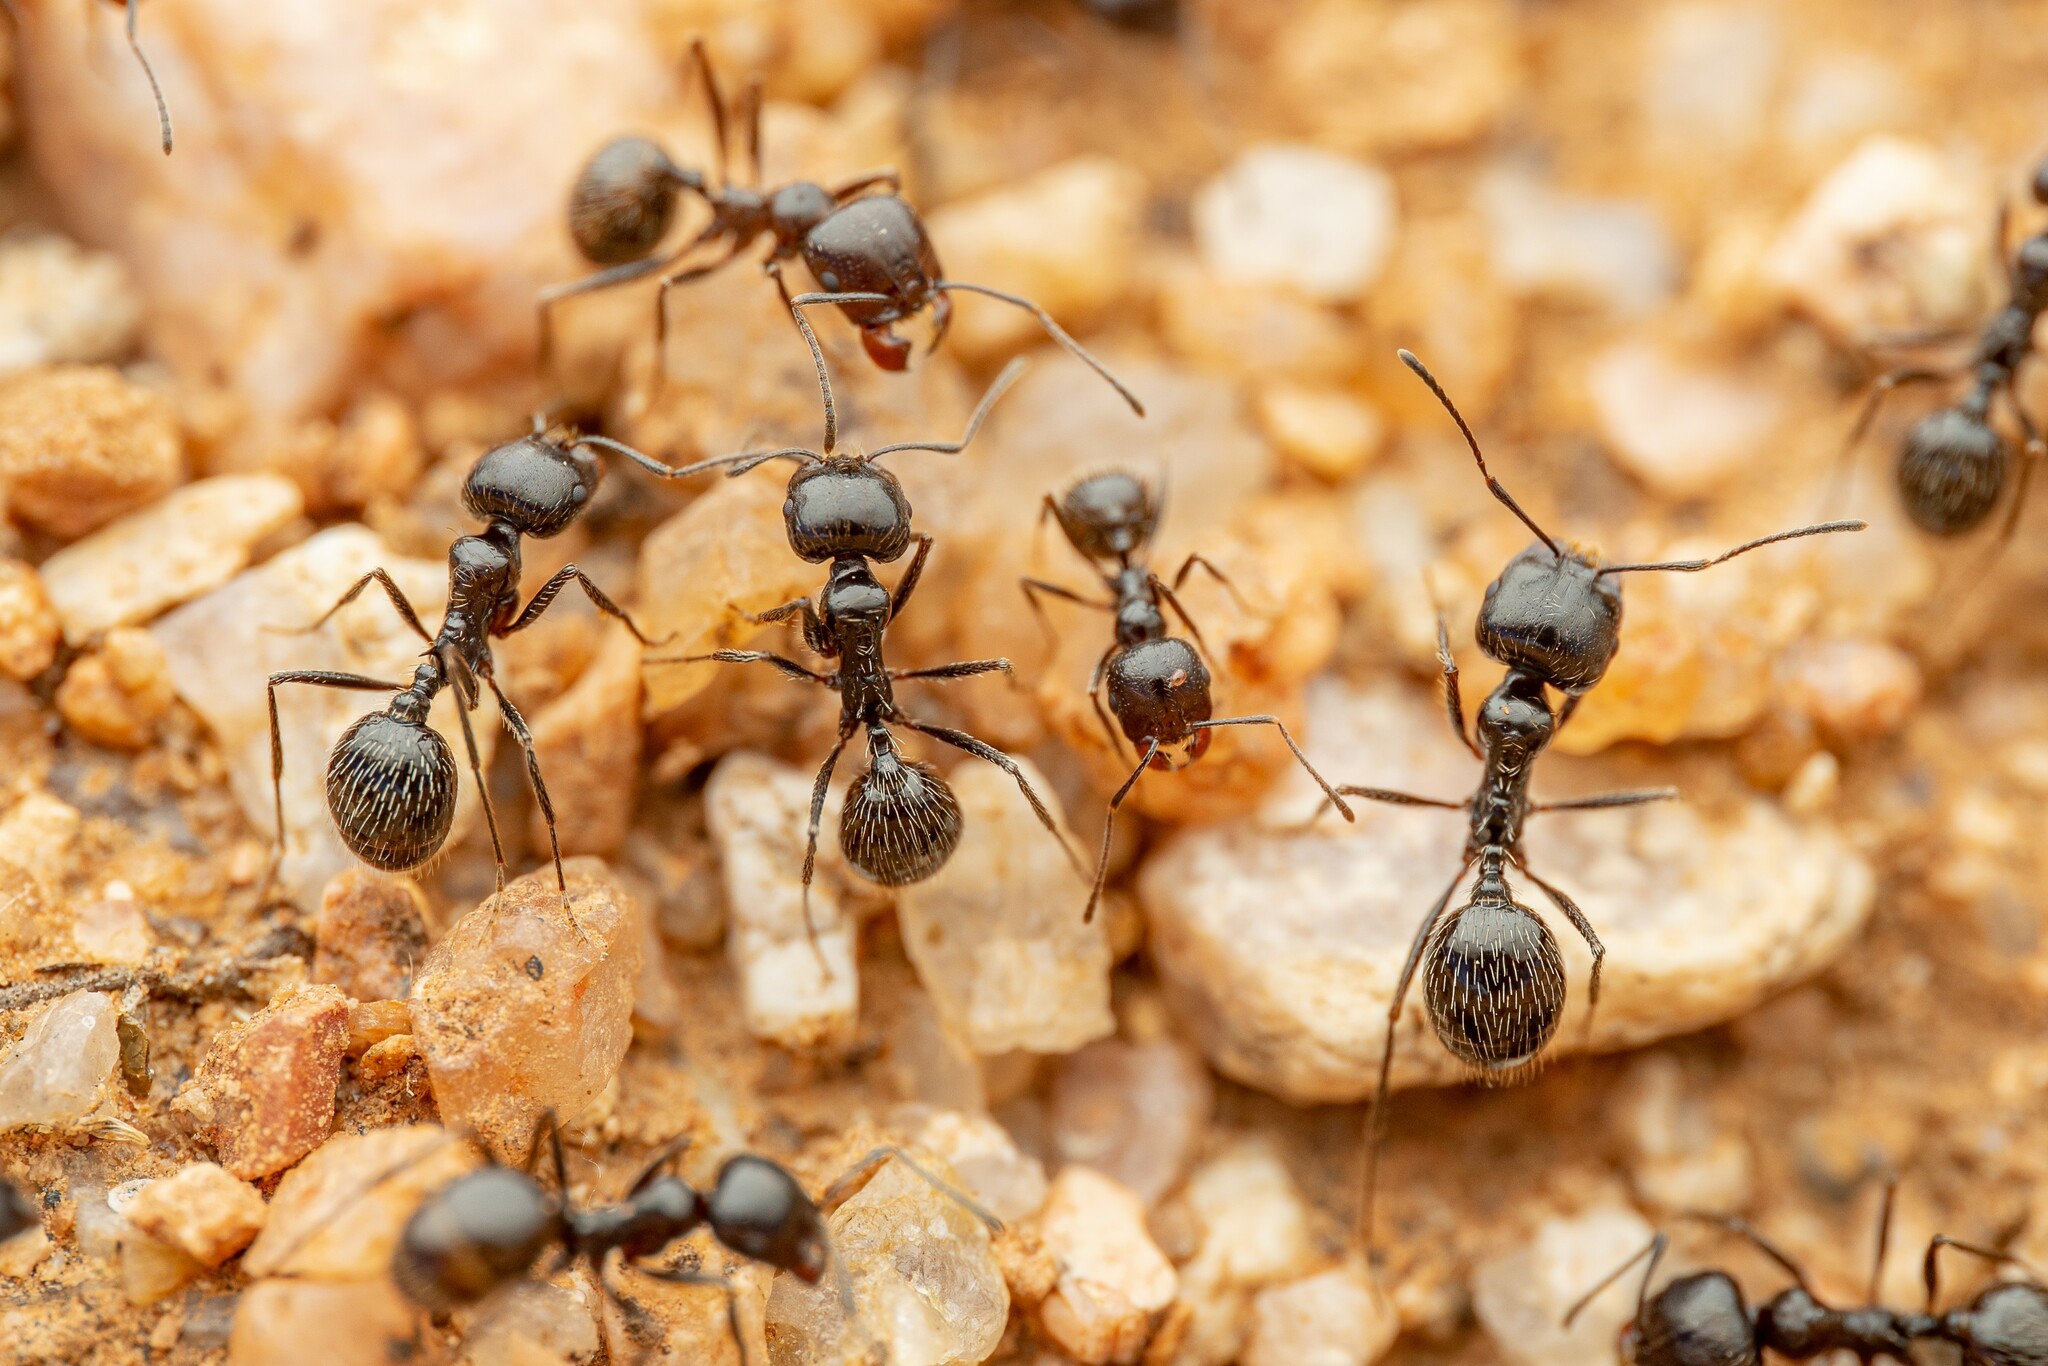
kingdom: Animalia
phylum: Arthropoda
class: Insecta
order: Hymenoptera
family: Formicidae
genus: Messor
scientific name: Messor pergandei
